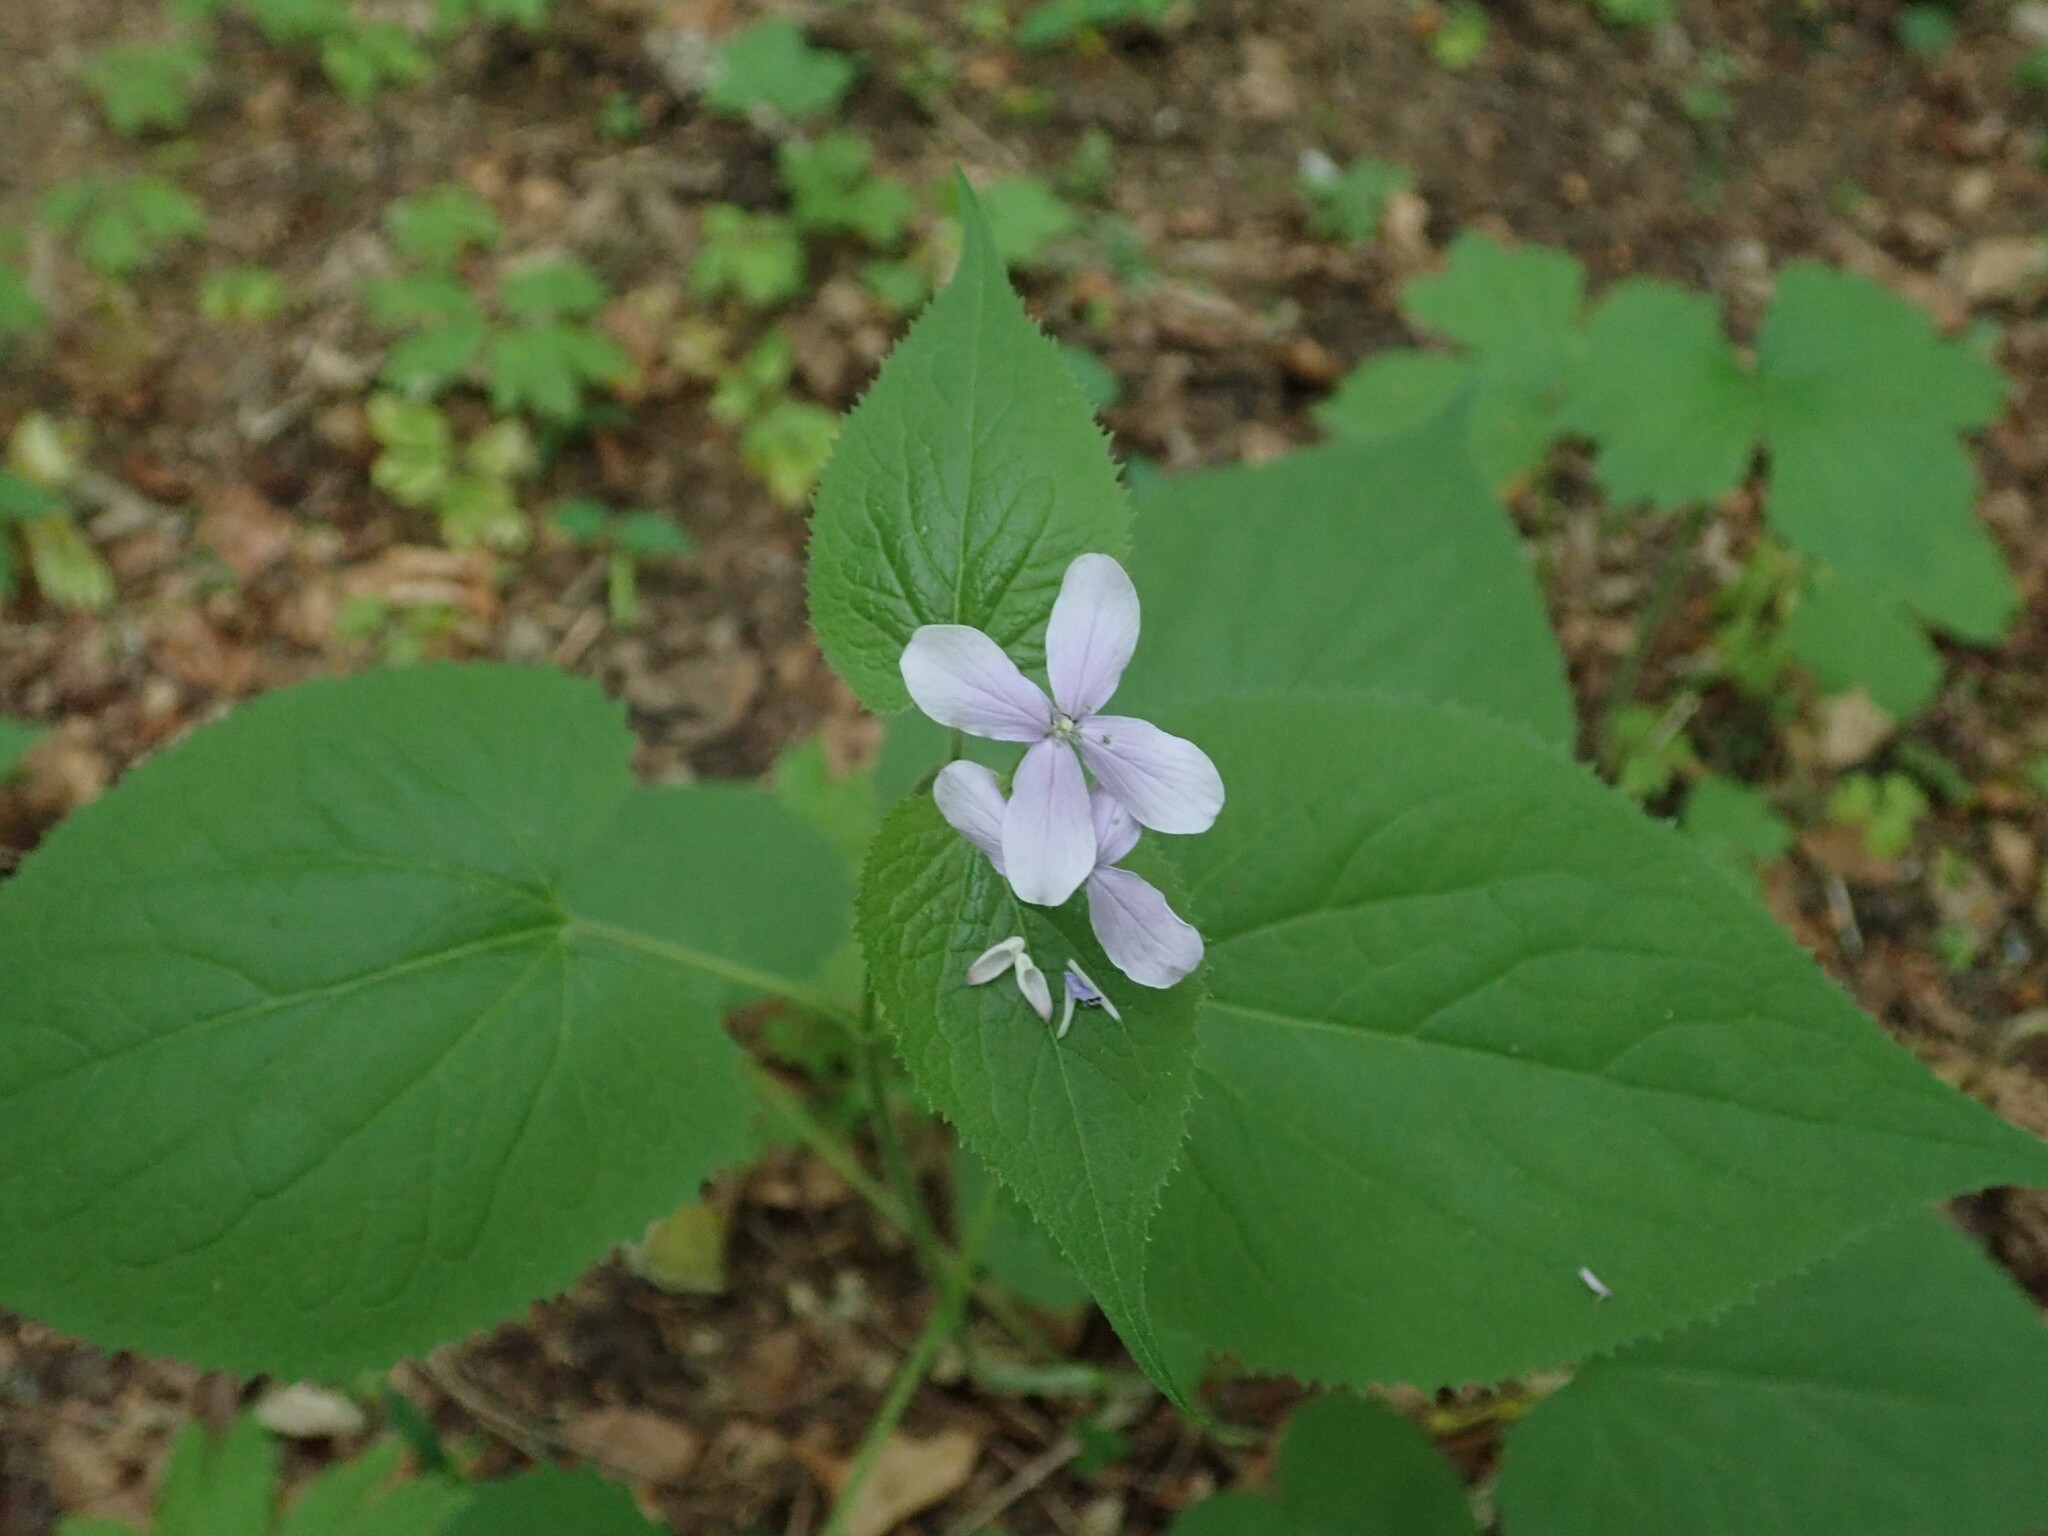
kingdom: Plantae
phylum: Tracheophyta
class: Magnoliopsida
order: Brassicales
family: Brassicaceae
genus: Lunaria
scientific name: Lunaria rediviva
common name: Perennial honesty
